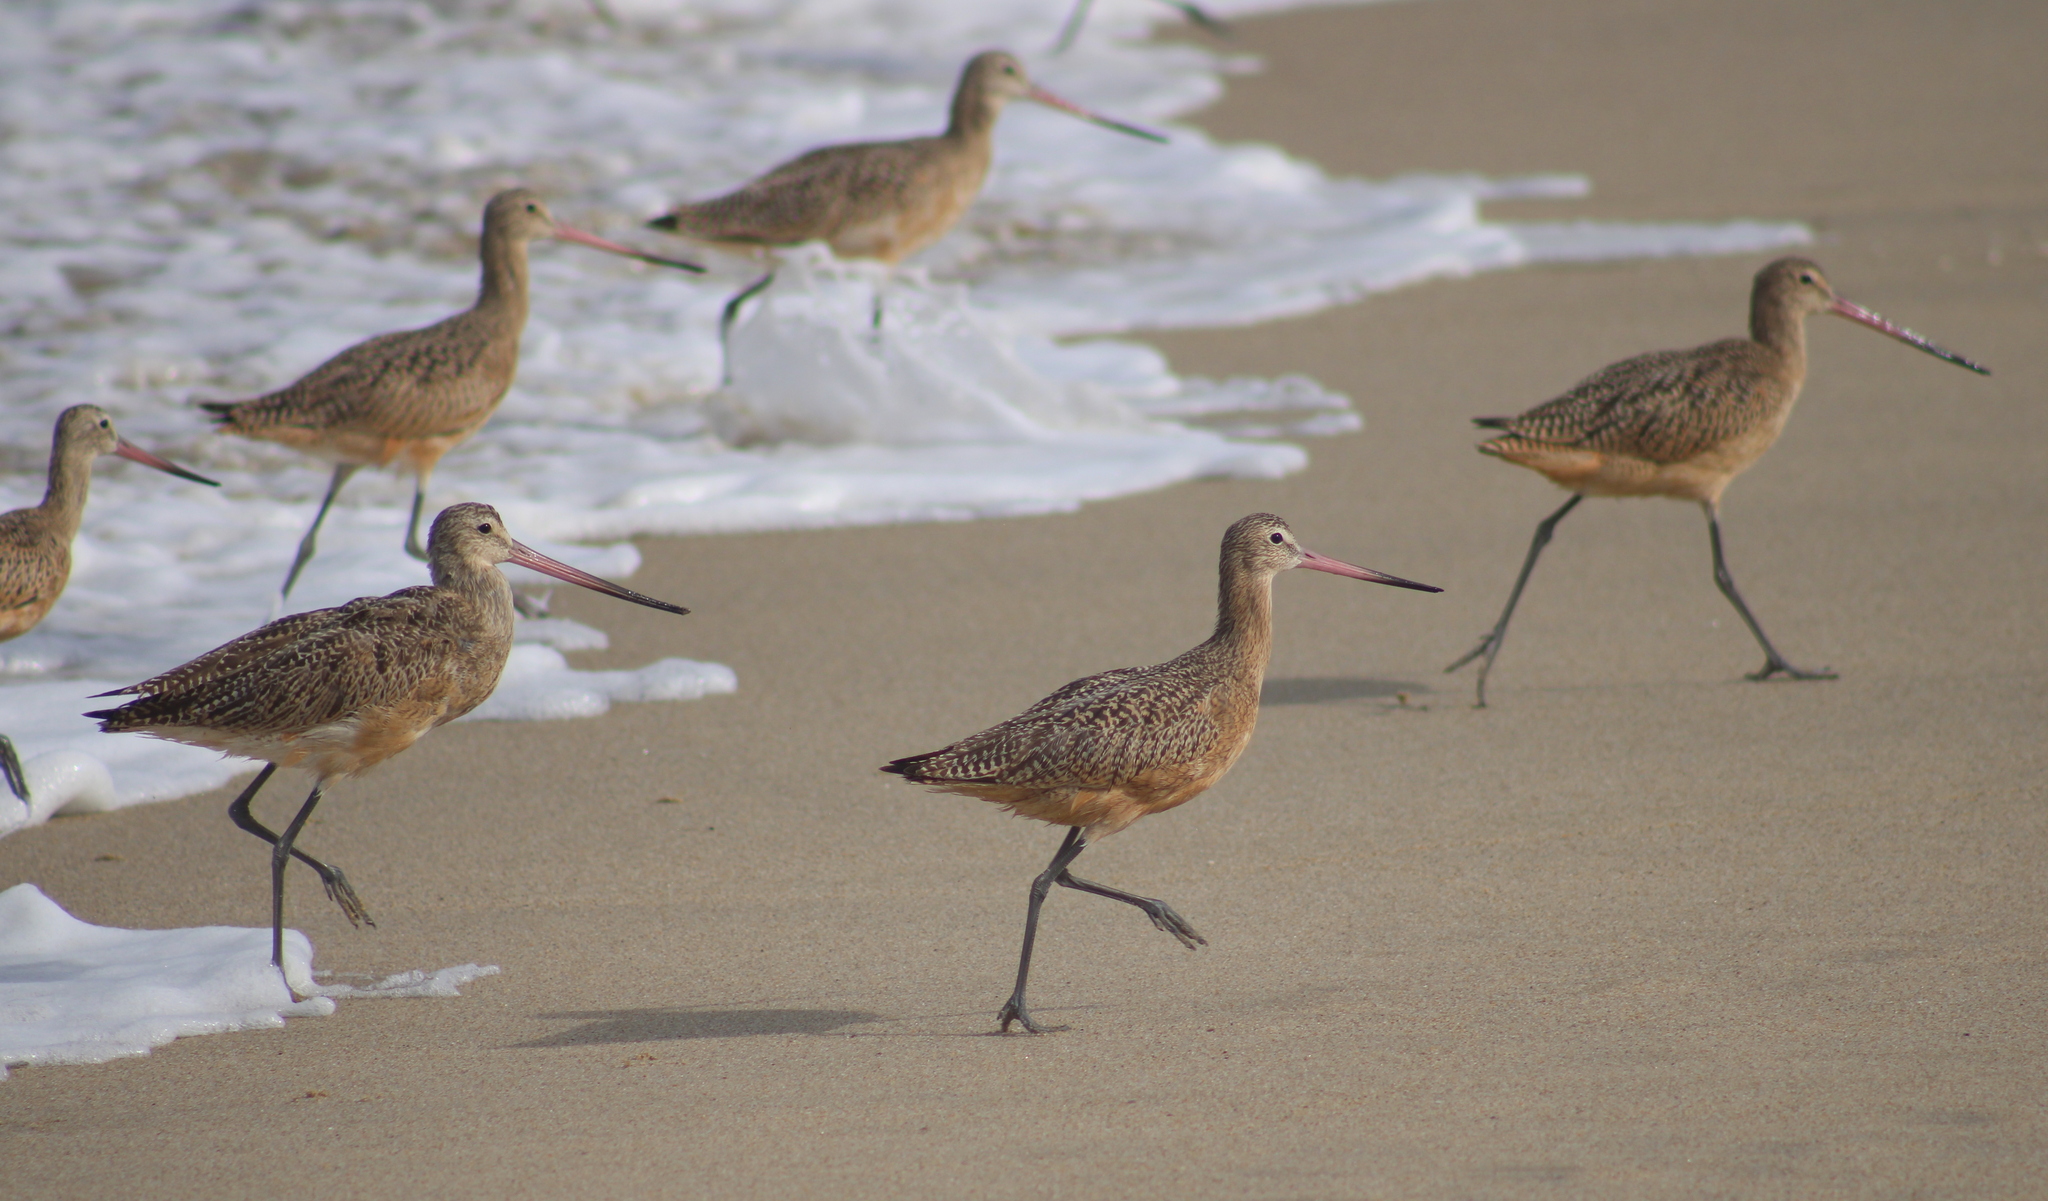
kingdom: Animalia
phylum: Chordata
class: Aves
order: Charadriiformes
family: Scolopacidae
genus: Limosa
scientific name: Limosa fedoa
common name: Marbled godwit
